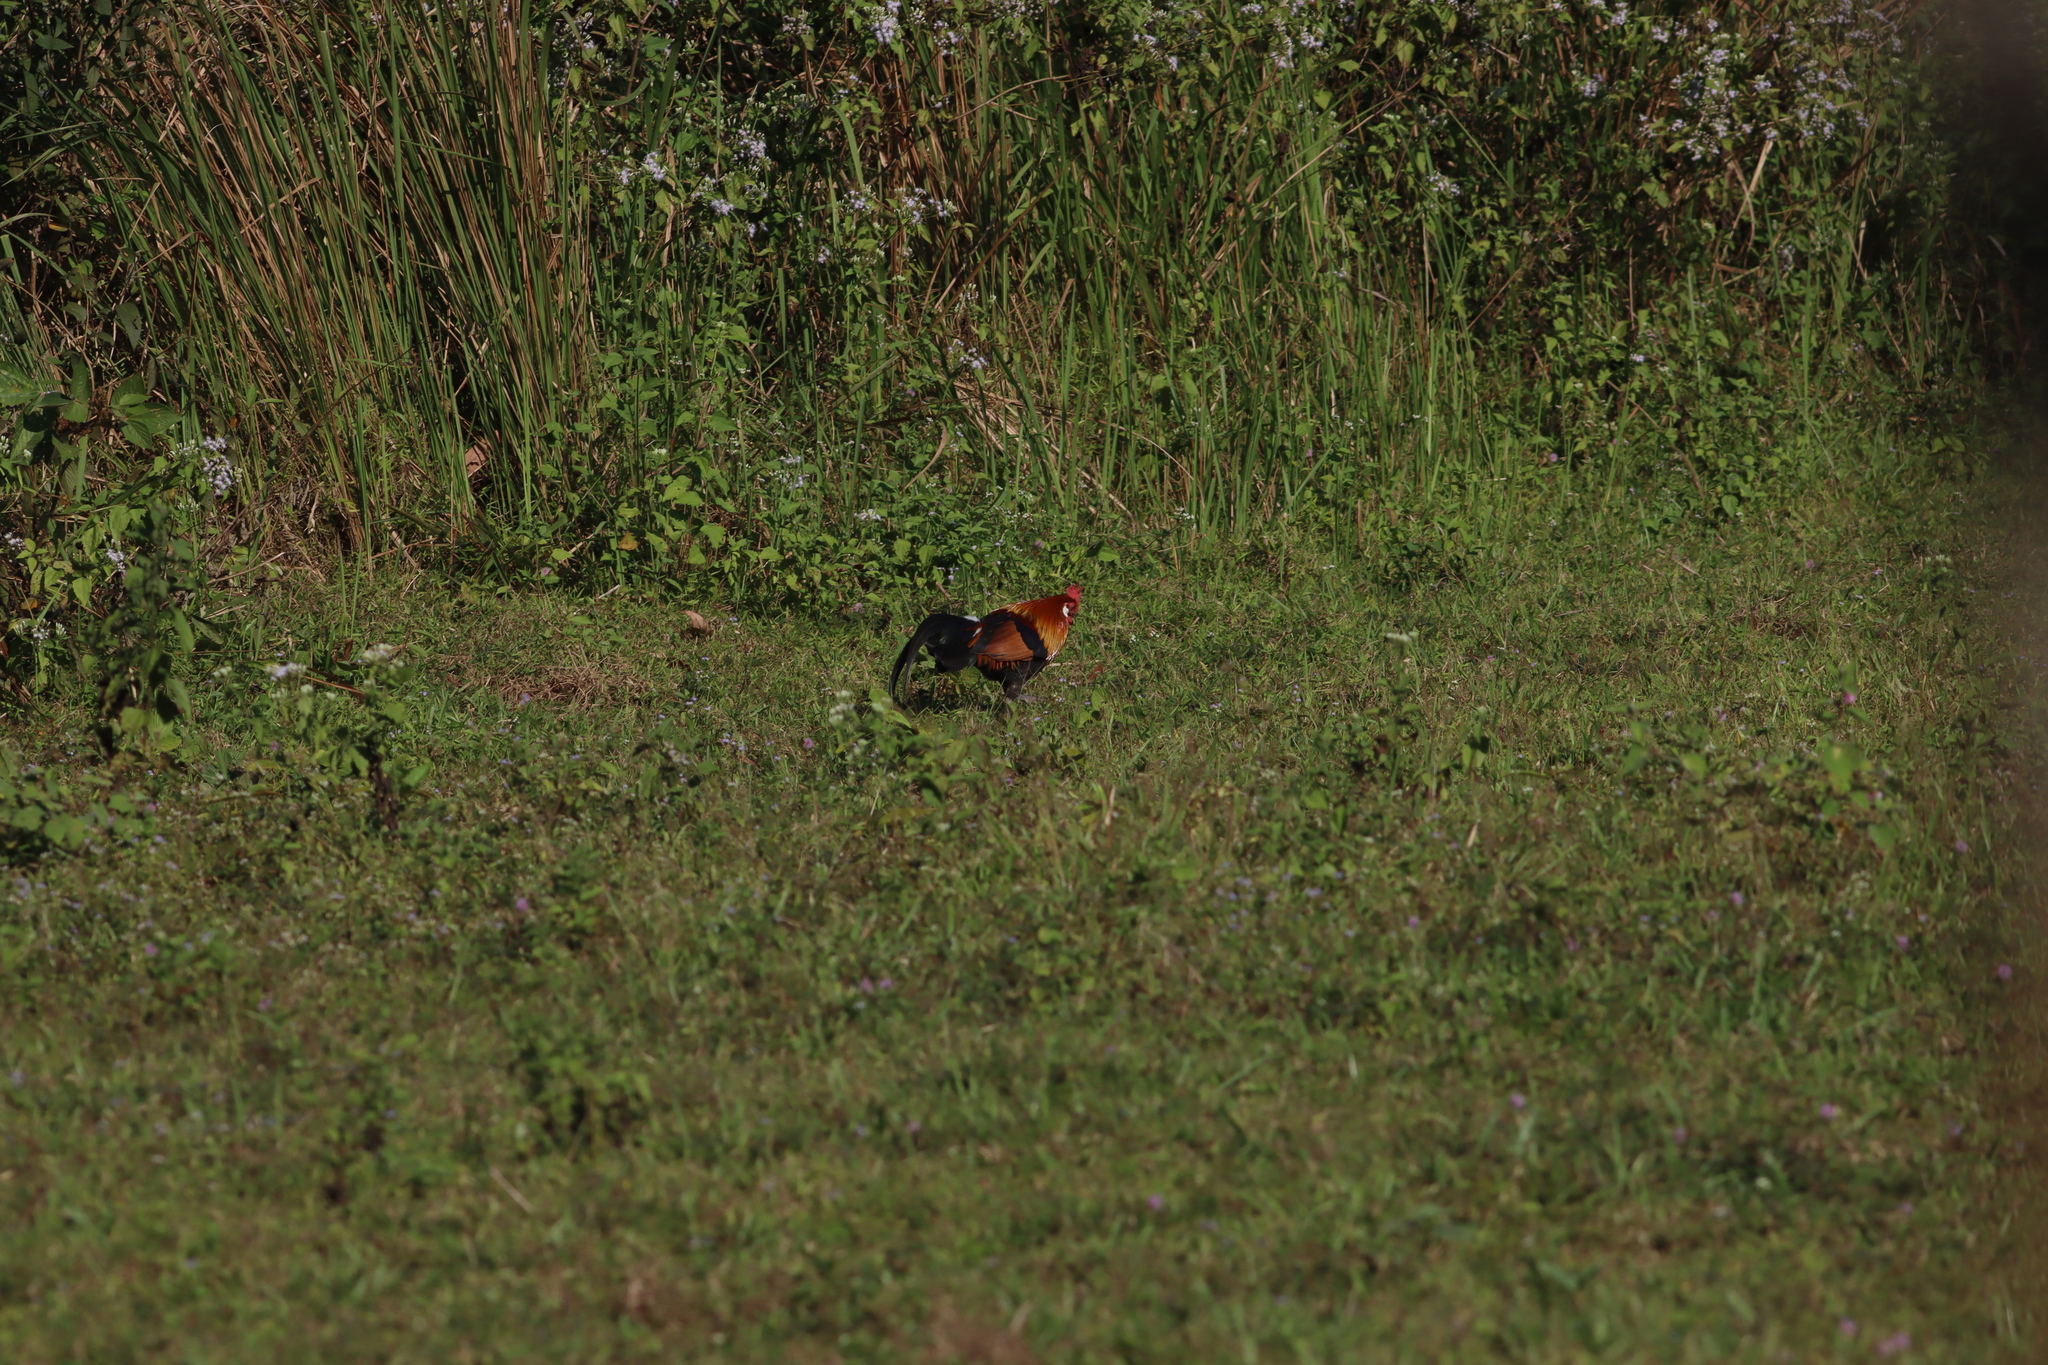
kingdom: Animalia
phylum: Chordata
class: Aves
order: Galliformes
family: Phasianidae
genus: Gallus
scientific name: Gallus gallus
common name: Red junglefowl
